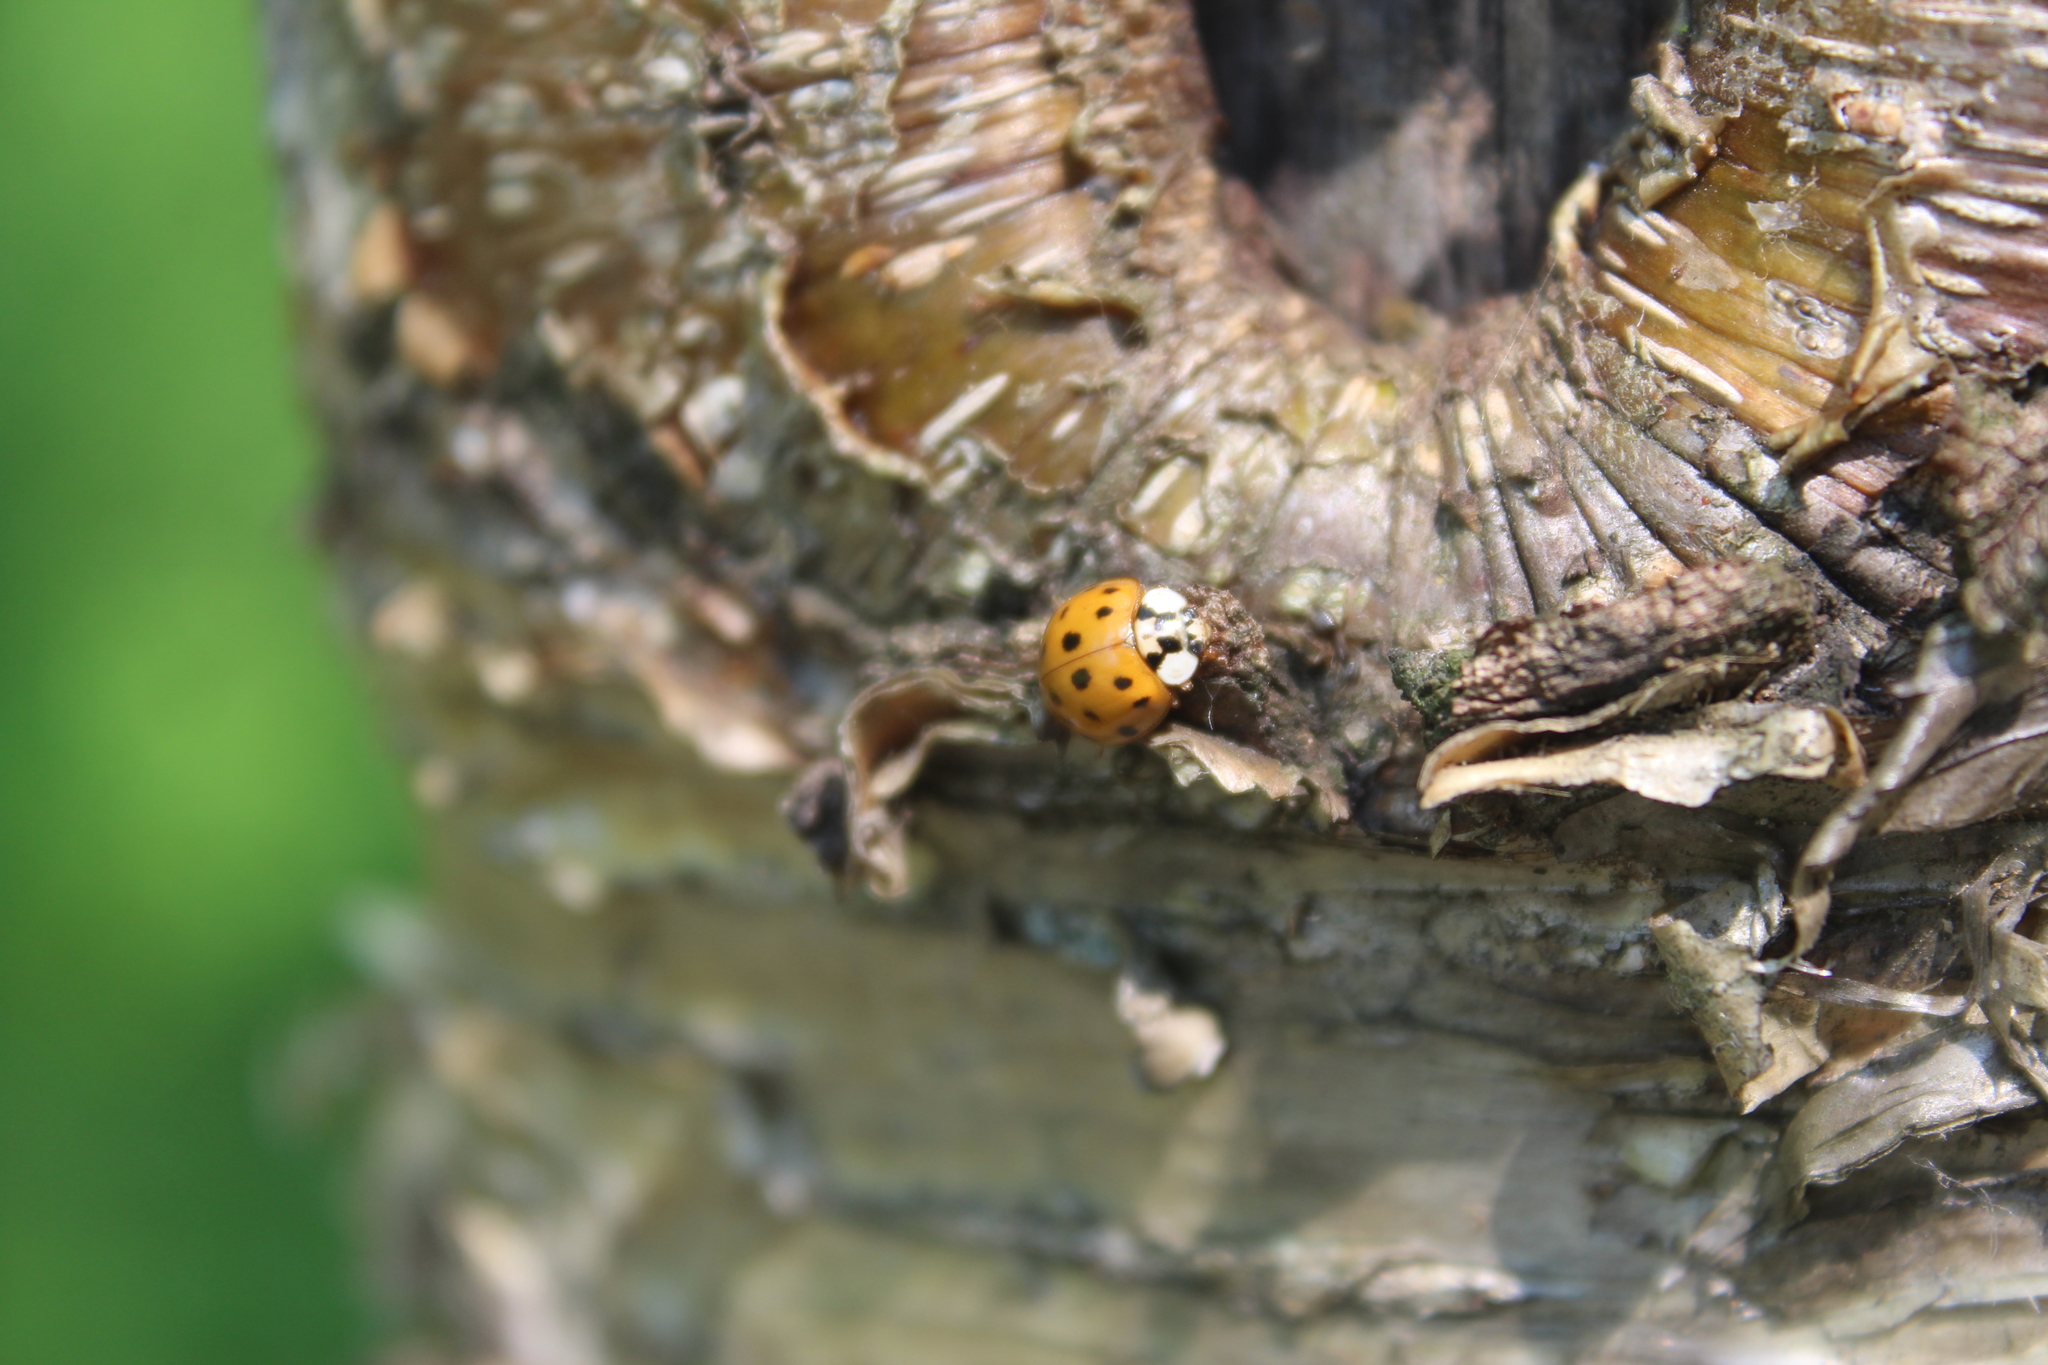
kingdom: Animalia
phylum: Arthropoda
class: Insecta
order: Coleoptera
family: Coccinellidae
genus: Harmonia
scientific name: Harmonia axyridis
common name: Harlequin ladybird
